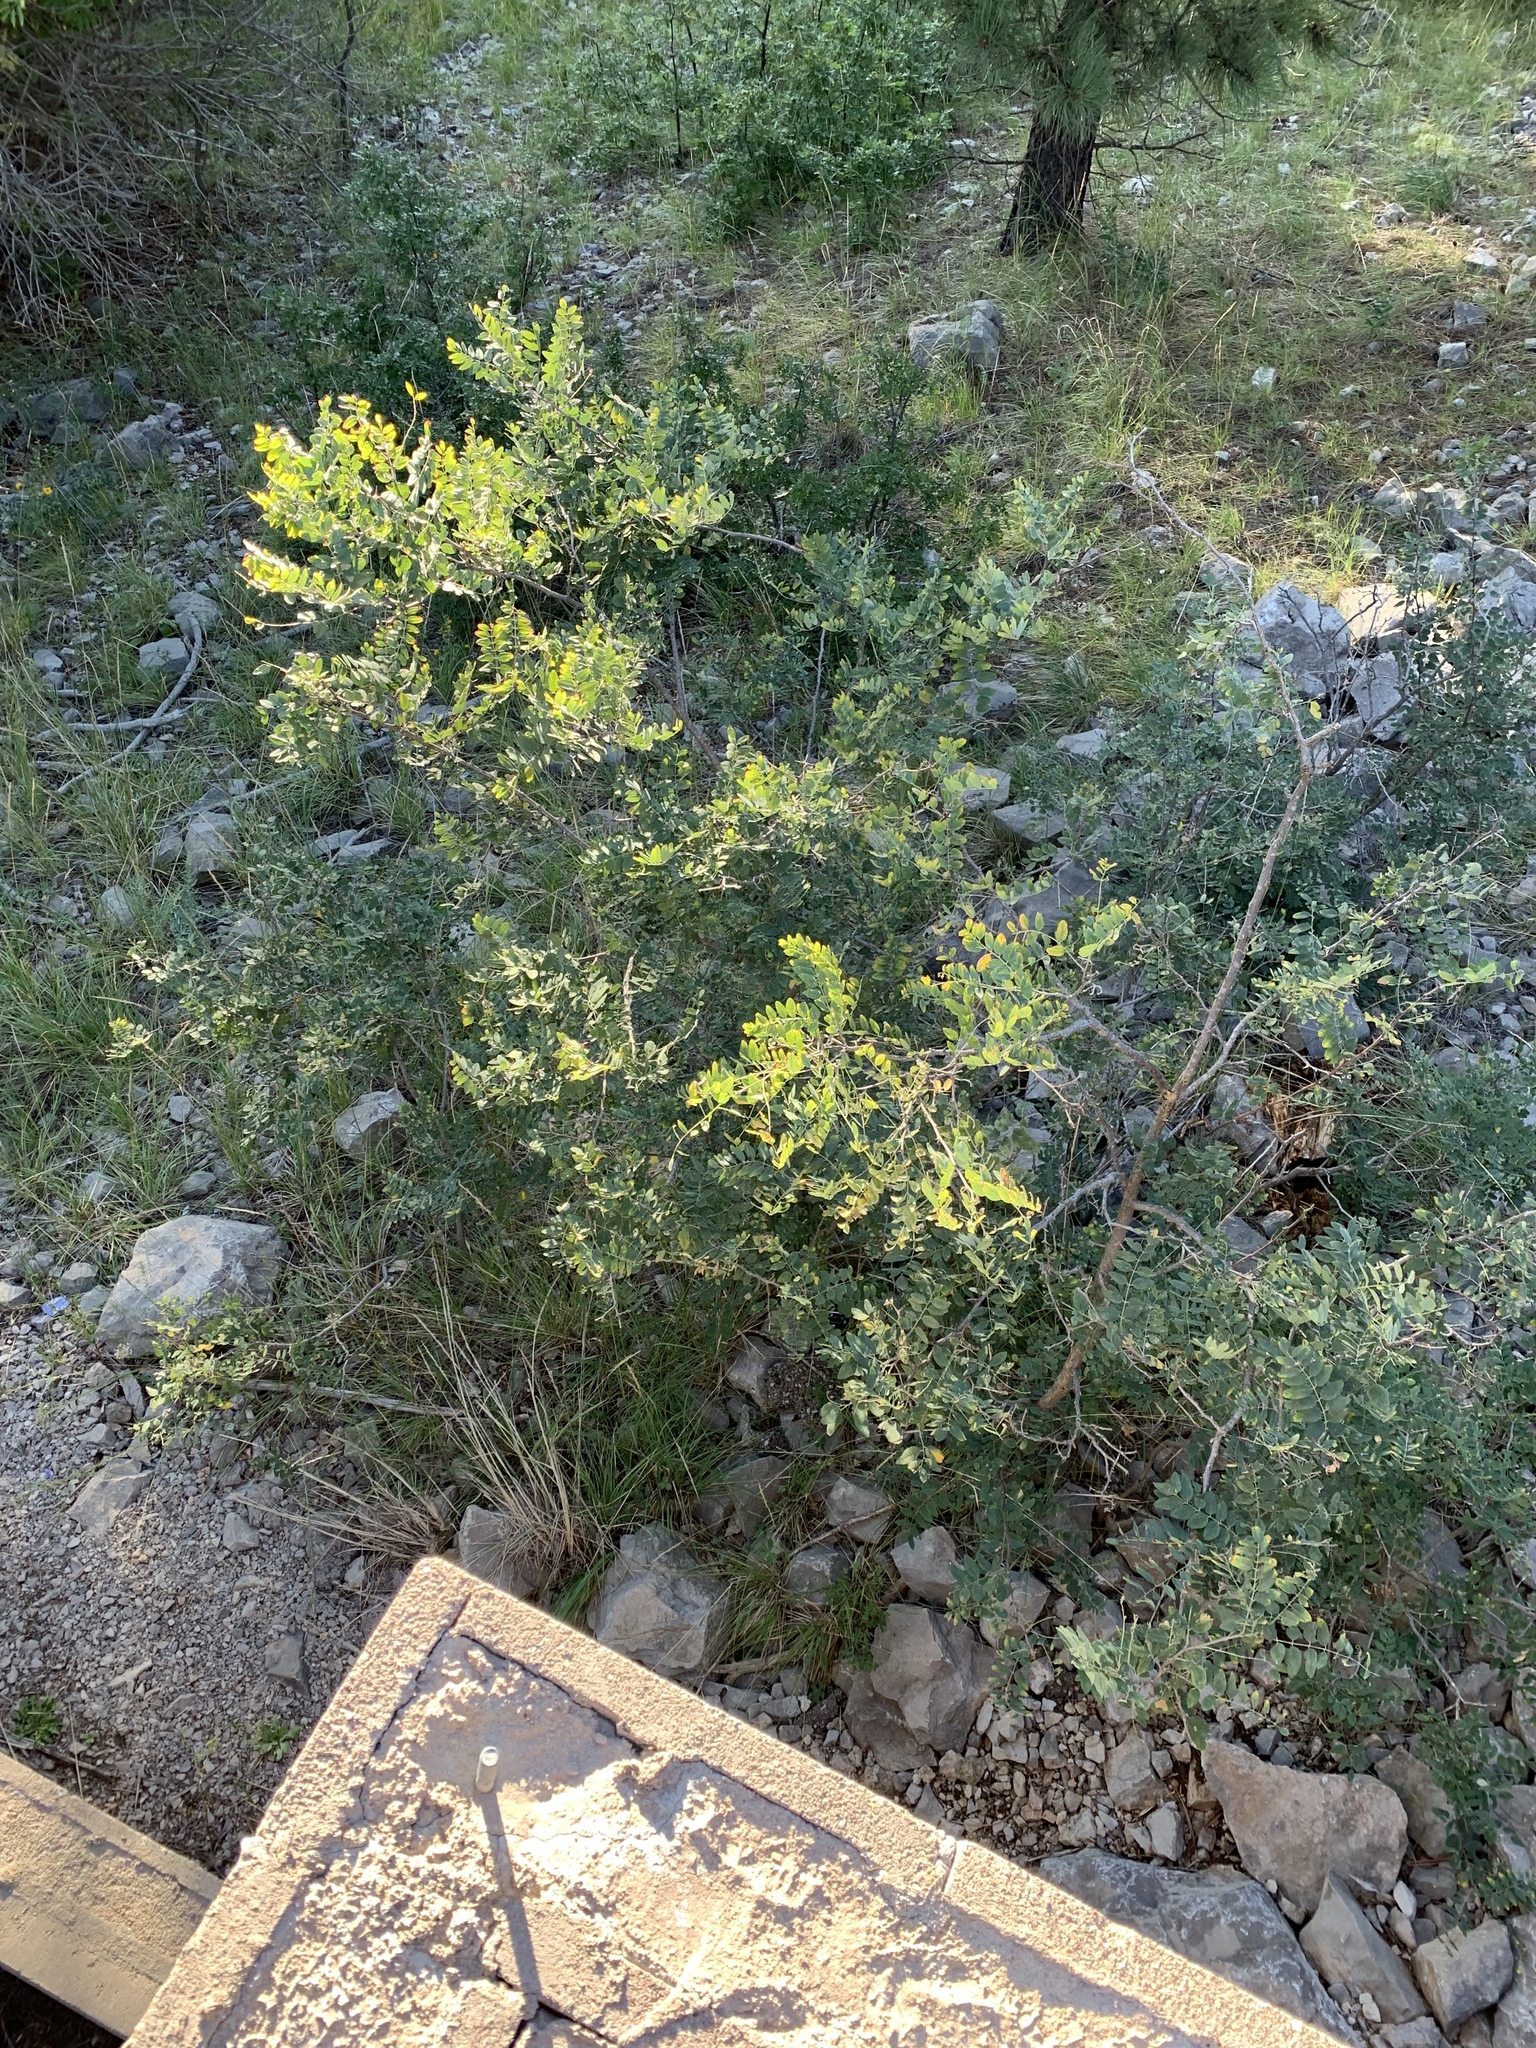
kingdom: Plantae
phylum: Tracheophyta
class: Magnoliopsida
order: Fabales
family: Fabaceae
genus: Robinia
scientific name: Robinia neomexicana
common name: New mexico locust
